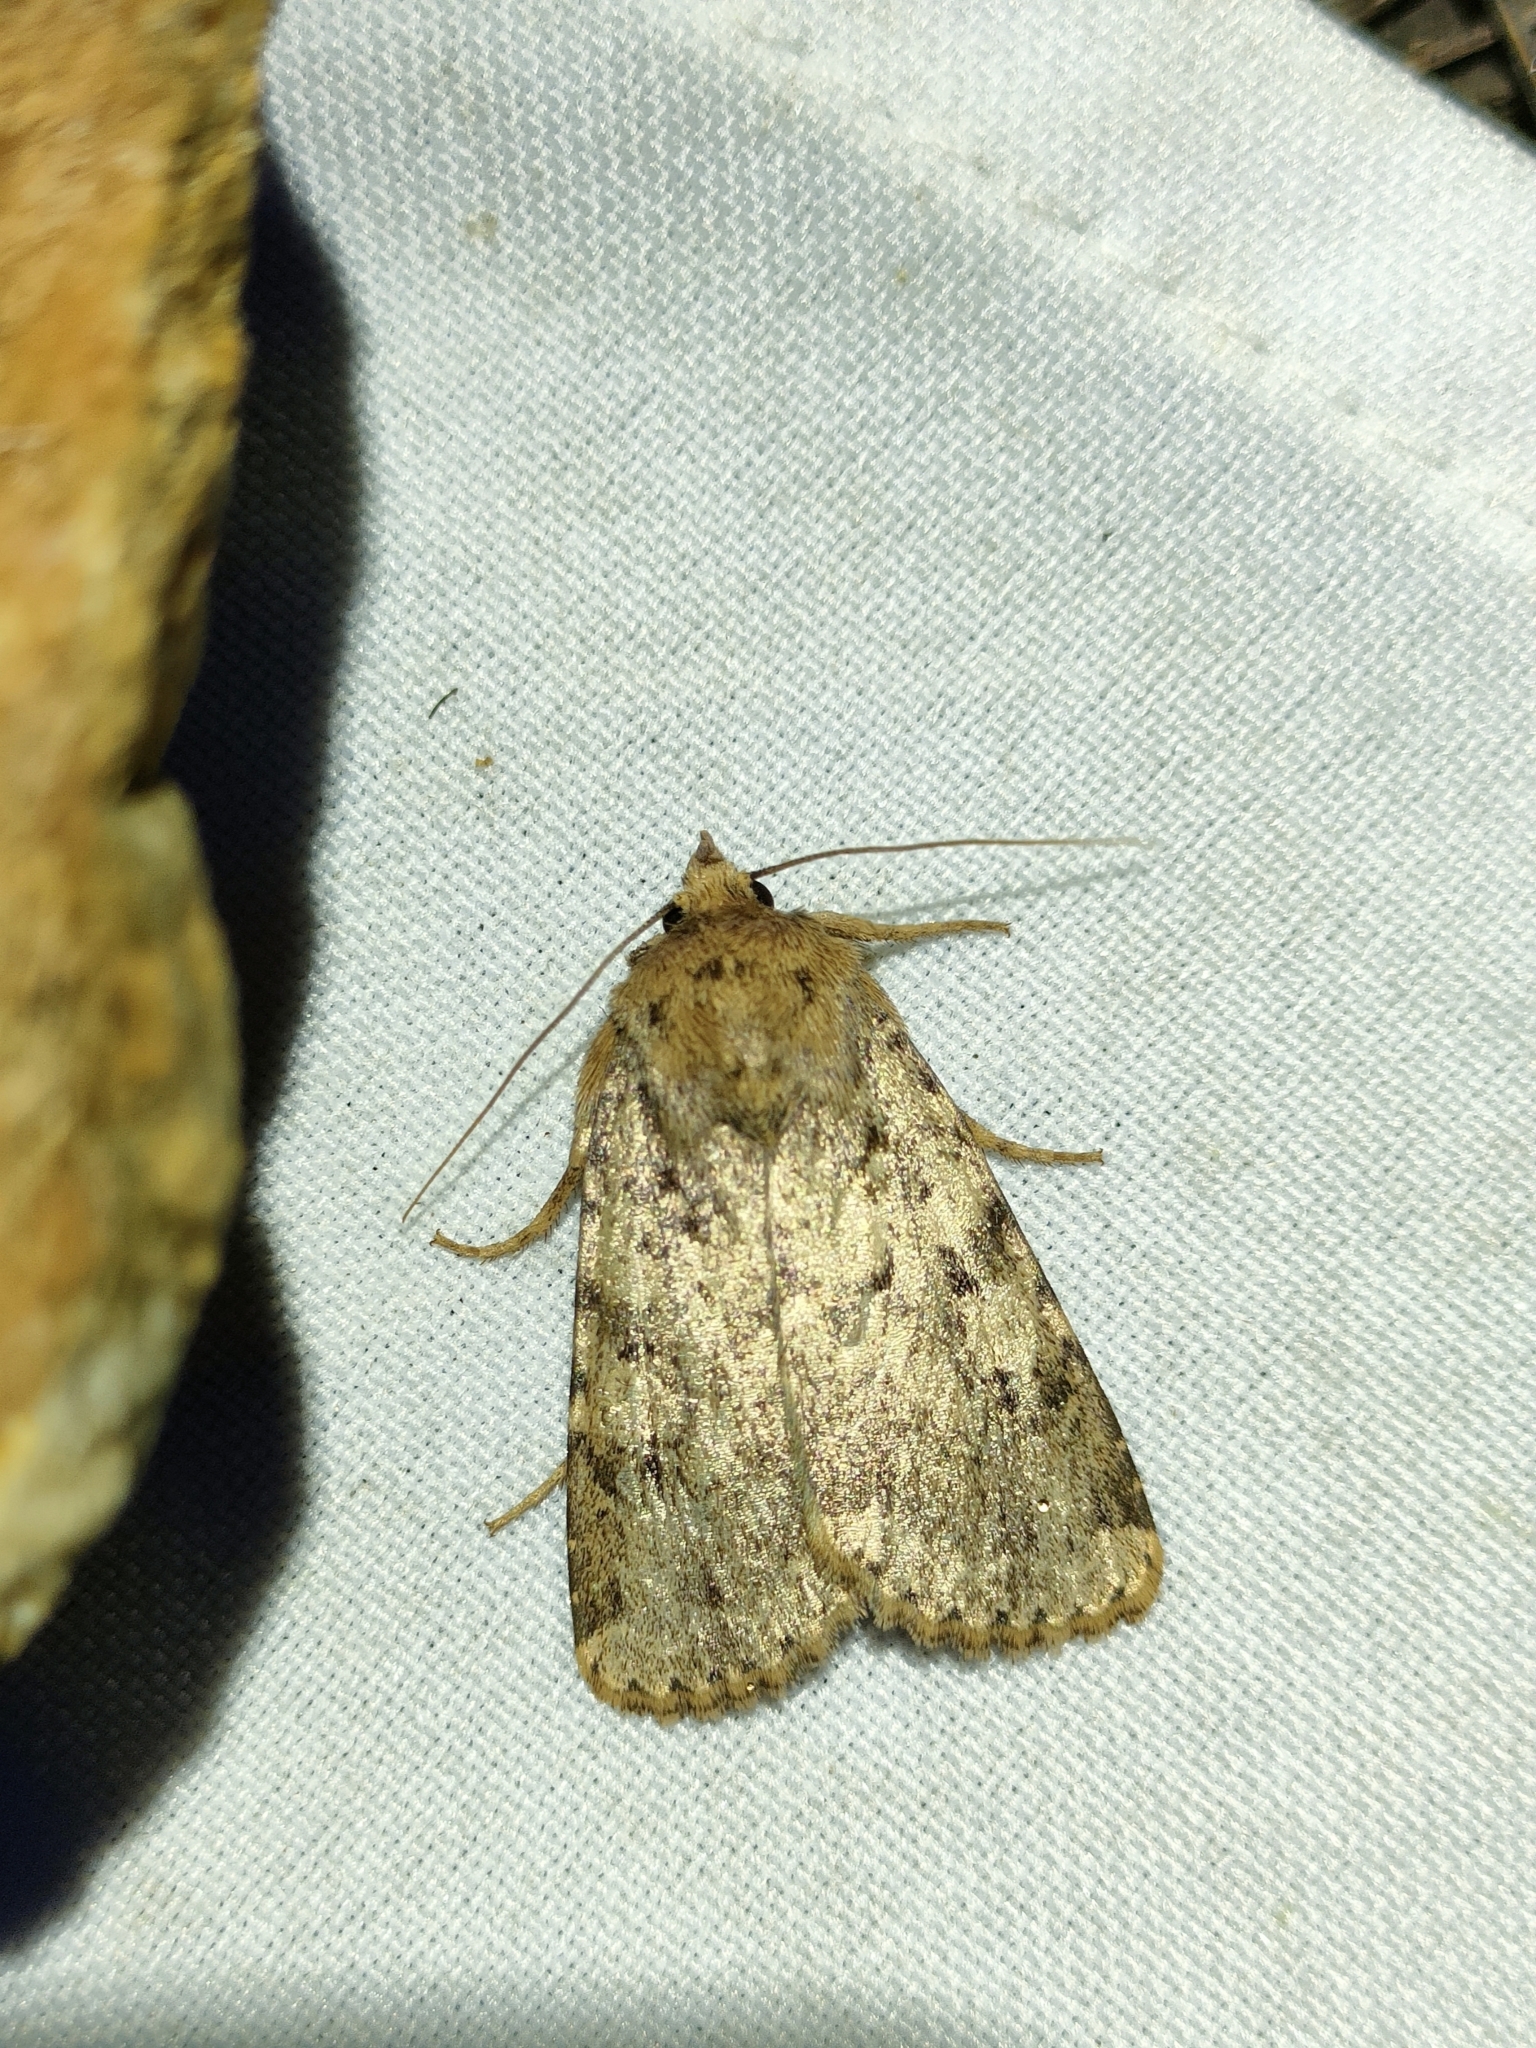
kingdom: Animalia
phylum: Arthropoda
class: Insecta
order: Lepidoptera
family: Noctuidae
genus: Amphipyra
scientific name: Amphipyra effusa
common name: Landguard ochre
